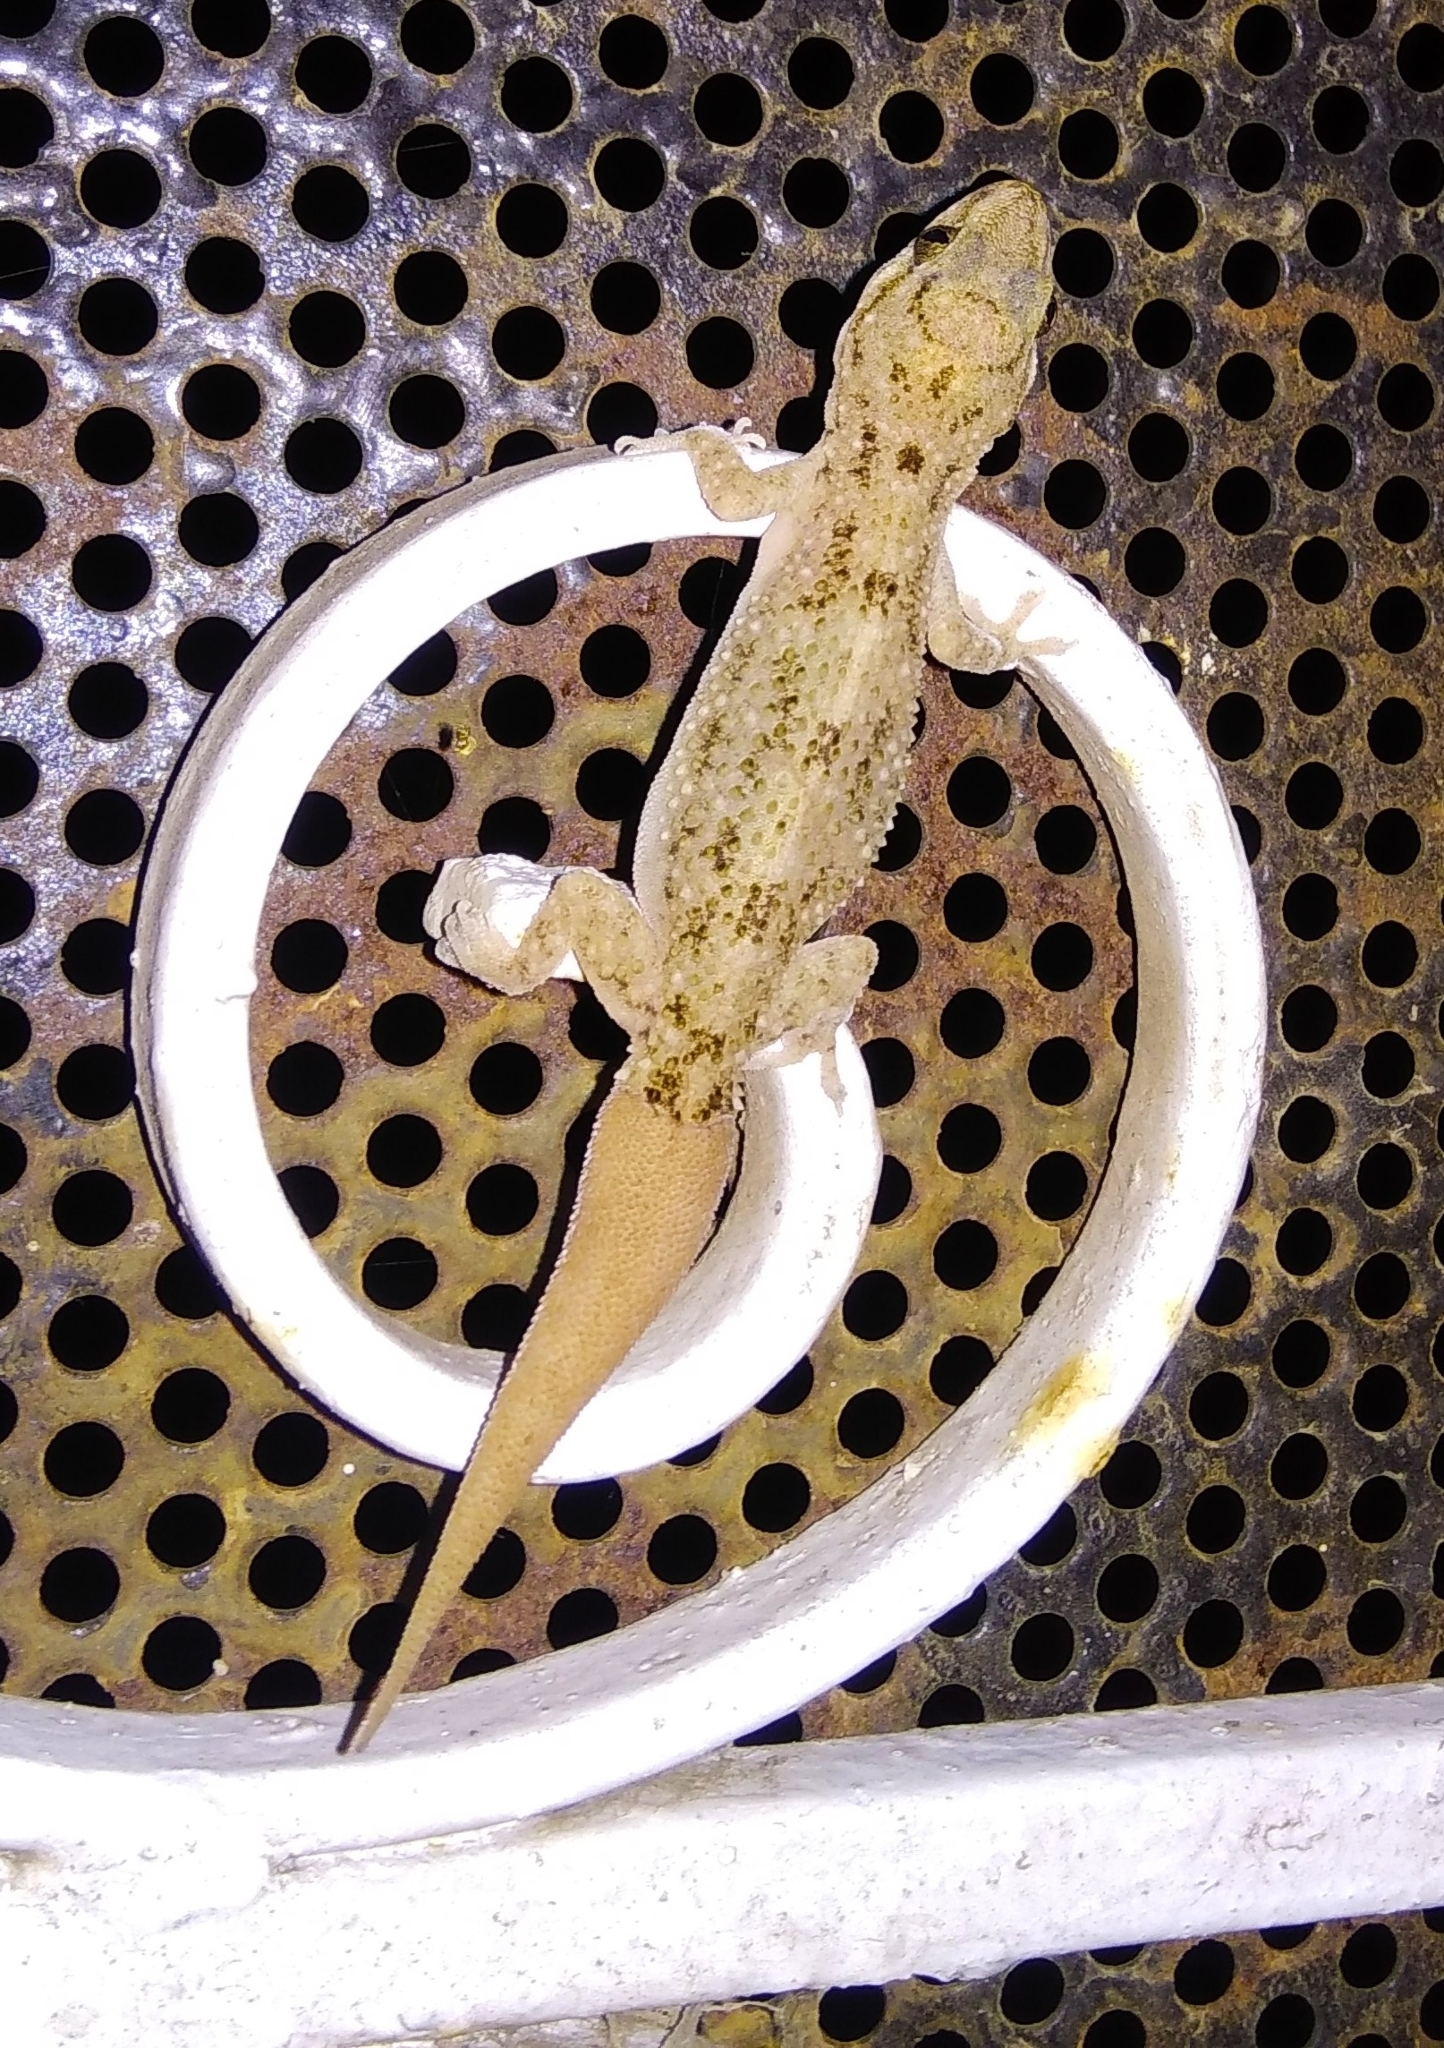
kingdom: Animalia
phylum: Chordata
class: Squamata
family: Gekkonidae
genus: Hemidactylus
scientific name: Hemidactylus brookii
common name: Brook's house gecko
